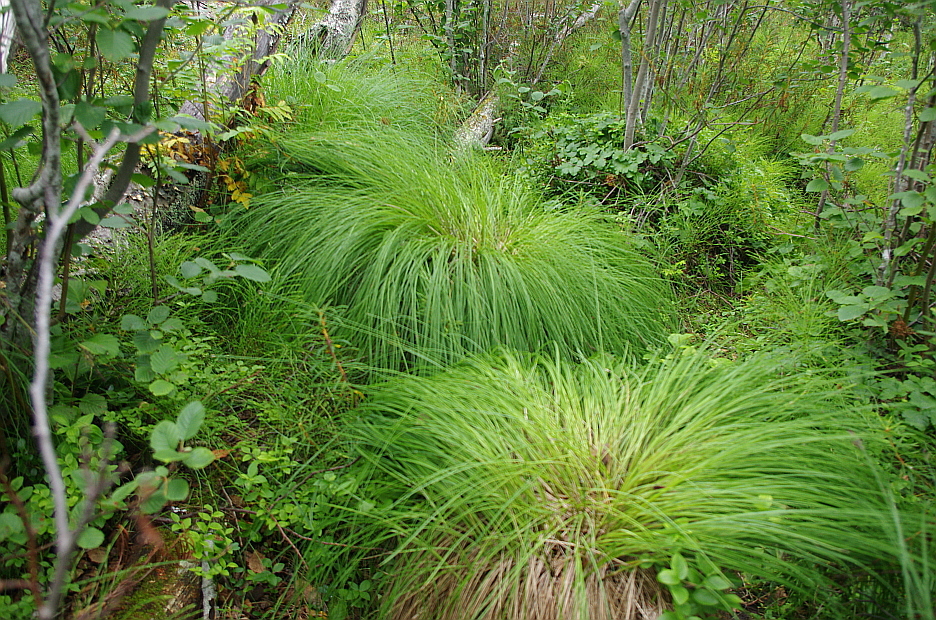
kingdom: Plantae
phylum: Tracheophyta
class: Liliopsida
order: Poales
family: Cyperaceae
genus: Carex
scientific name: Carex nigra
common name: Common sedge
